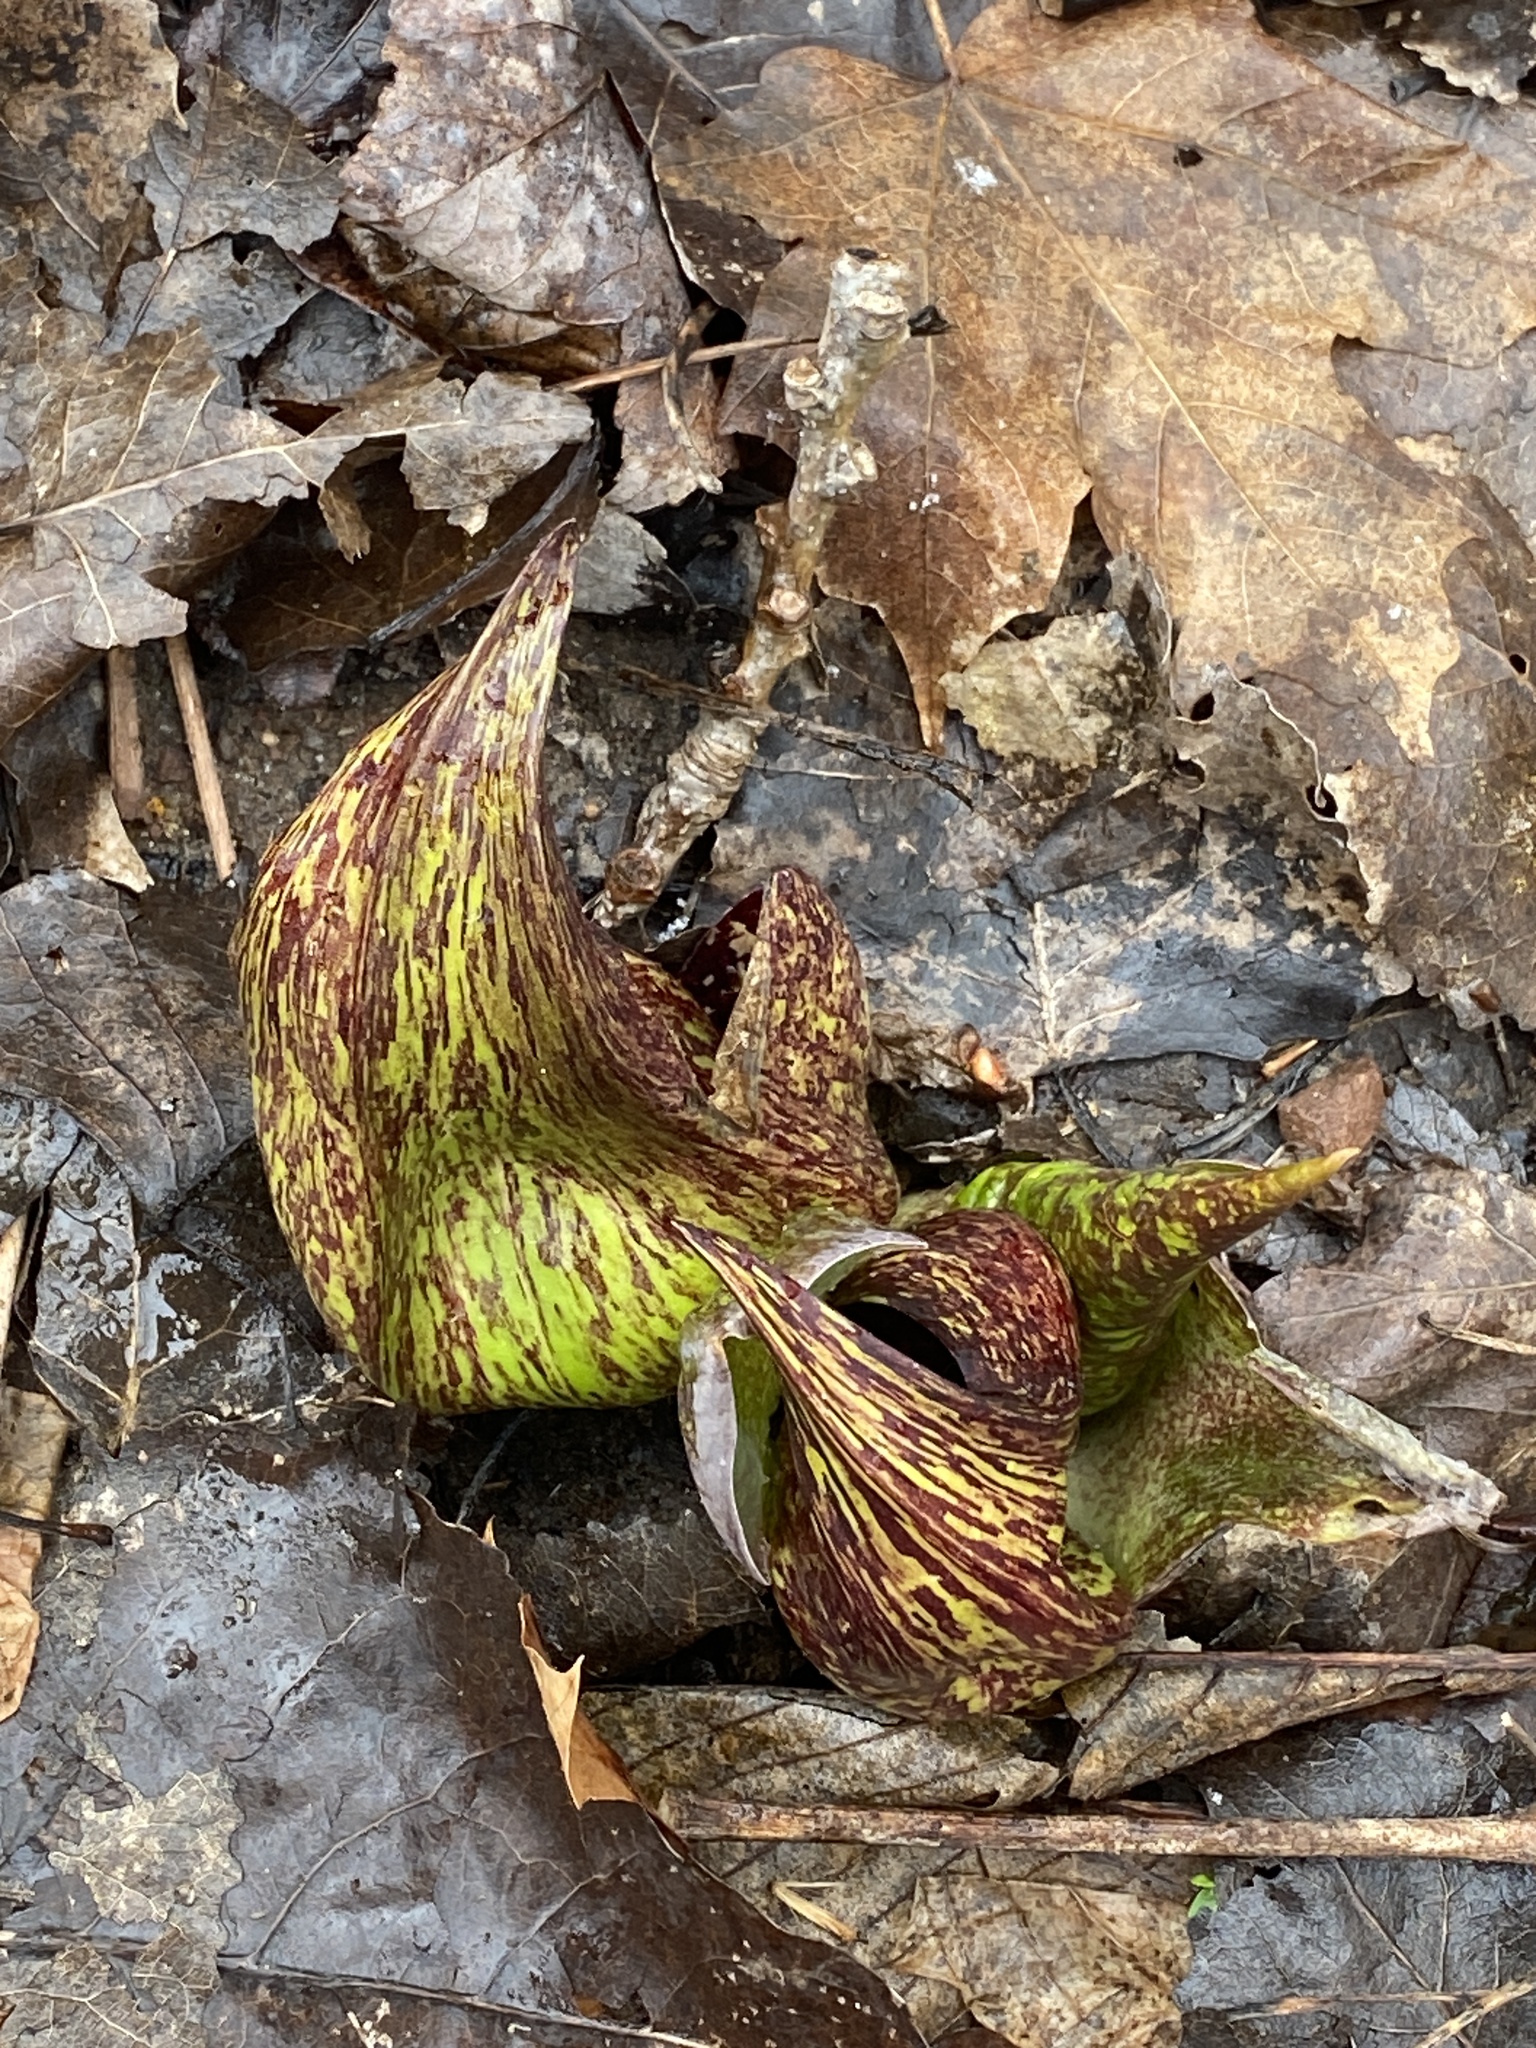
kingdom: Plantae
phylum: Tracheophyta
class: Liliopsida
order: Alismatales
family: Araceae
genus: Symplocarpus
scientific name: Symplocarpus foetidus
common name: Eastern skunk cabbage
